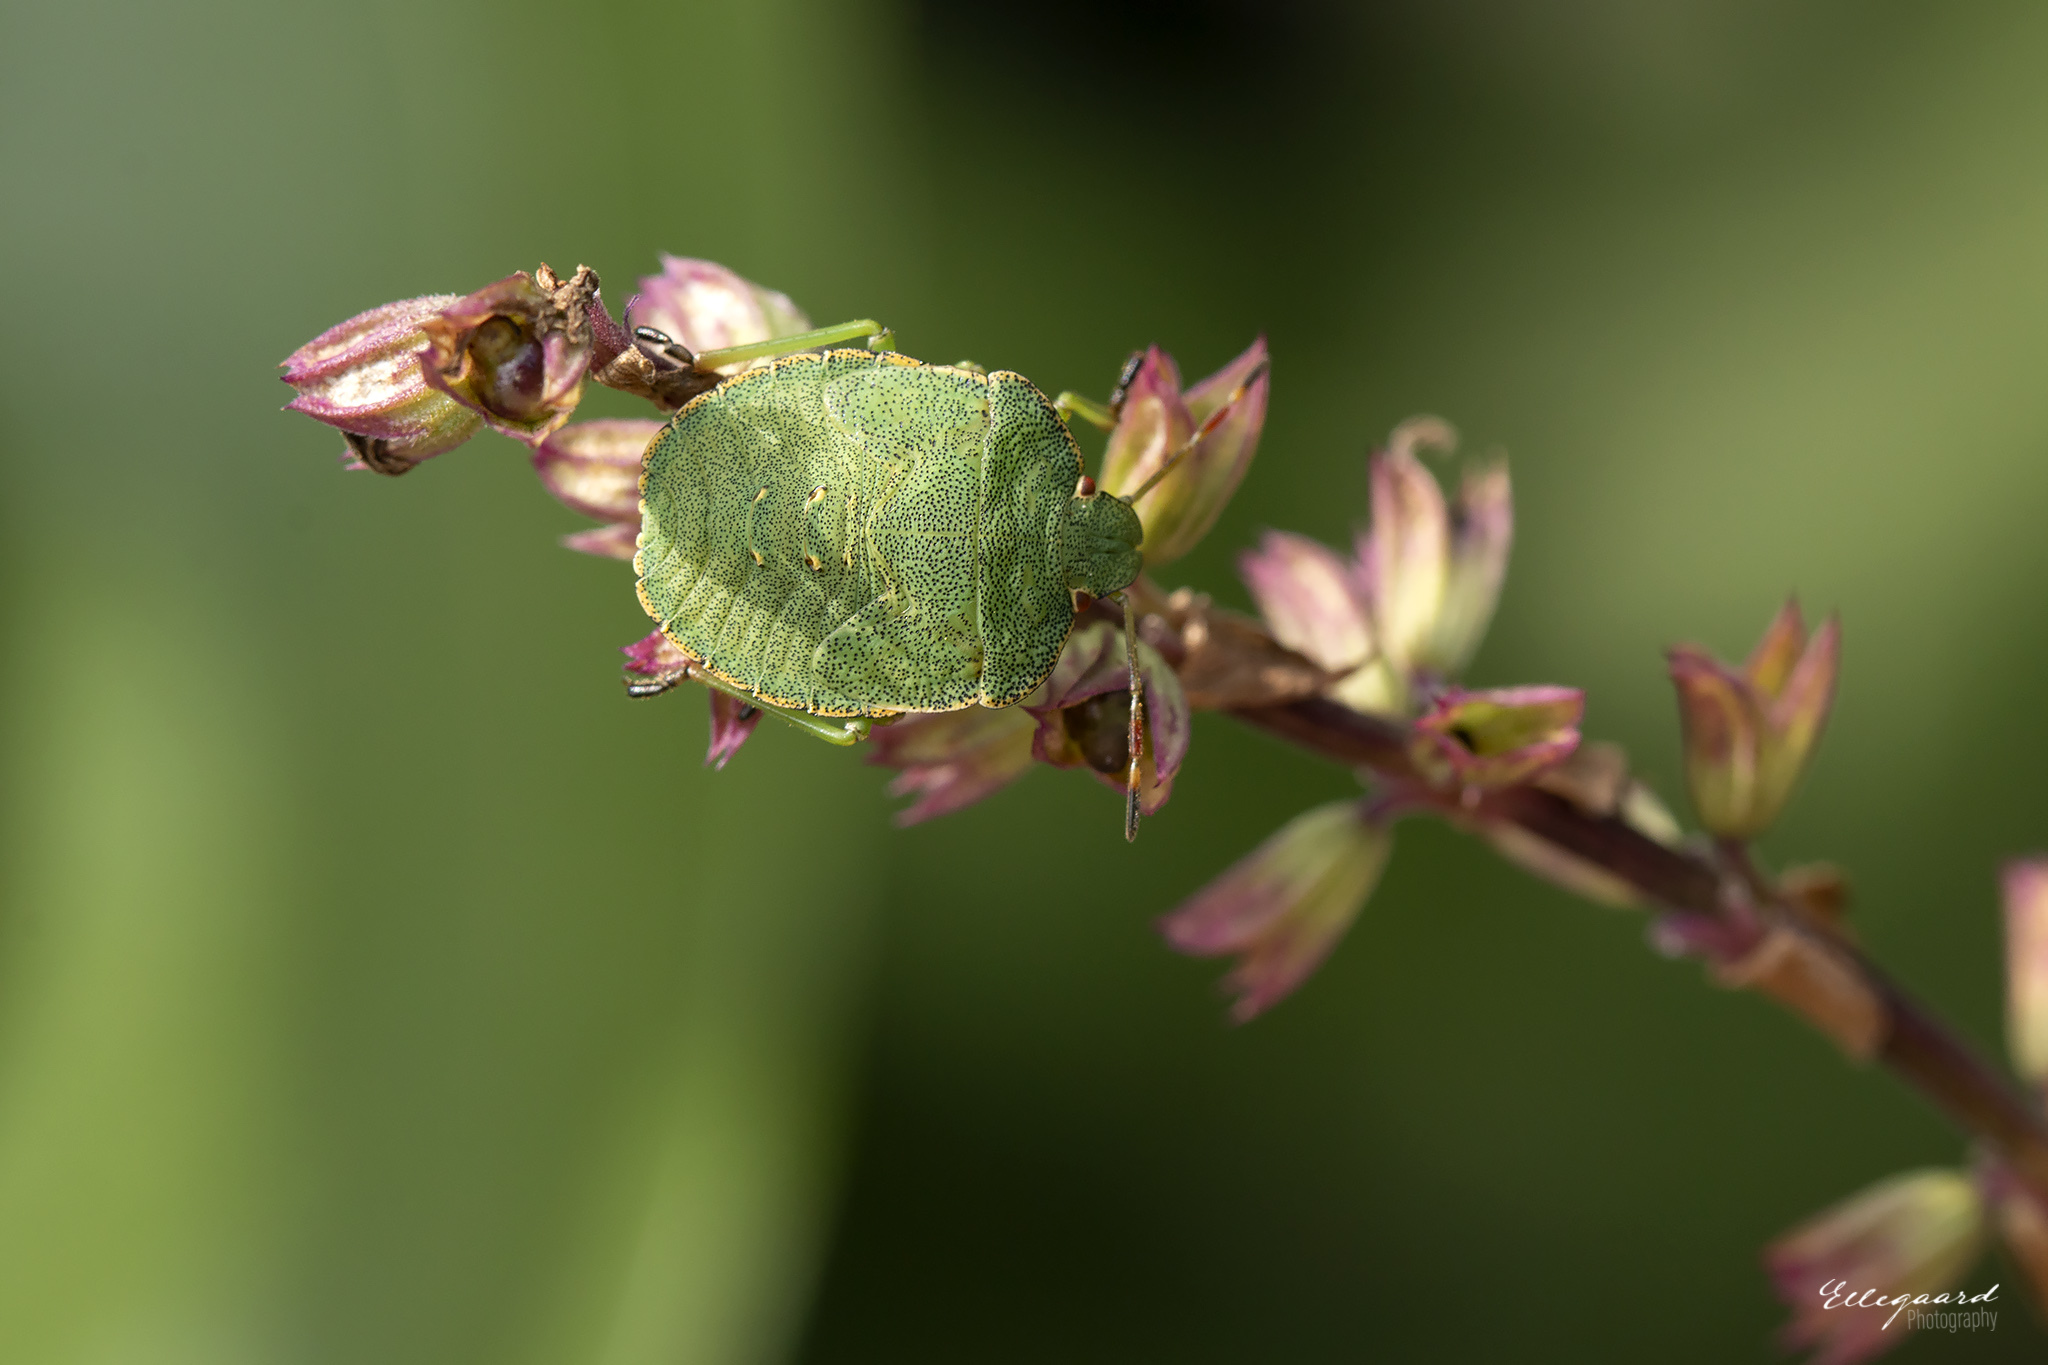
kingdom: Animalia
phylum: Arthropoda
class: Insecta
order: Hemiptera
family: Pentatomidae
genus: Palomena
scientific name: Palomena prasina
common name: Green shieldbug
